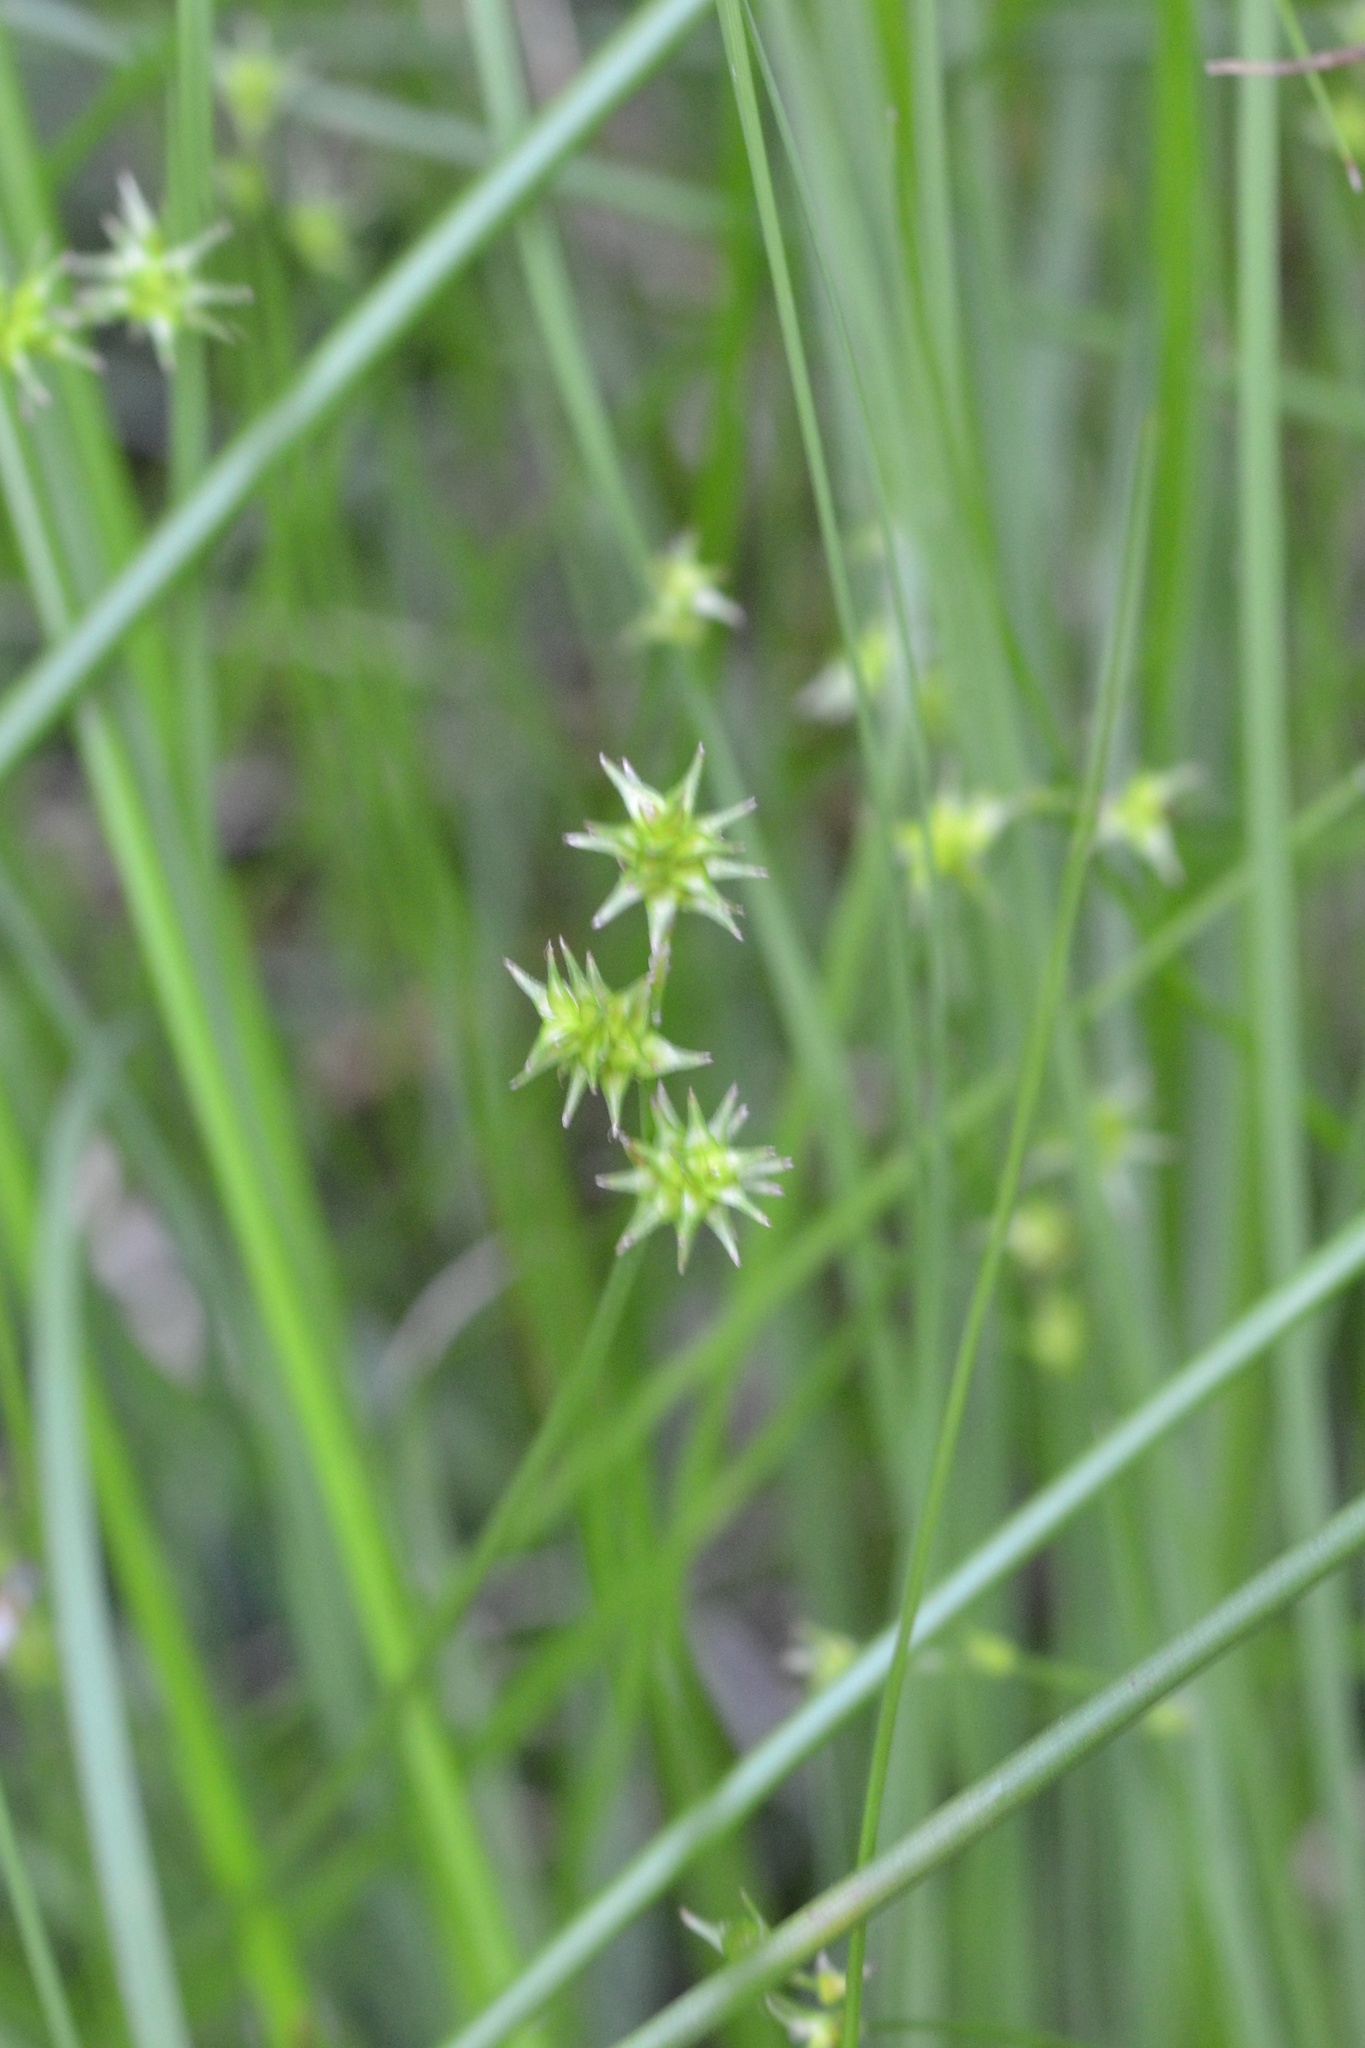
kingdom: Plantae
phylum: Tracheophyta
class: Liliopsida
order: Poales
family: Cyperaceae
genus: Carex
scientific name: Carex echinata
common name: Star sedge
